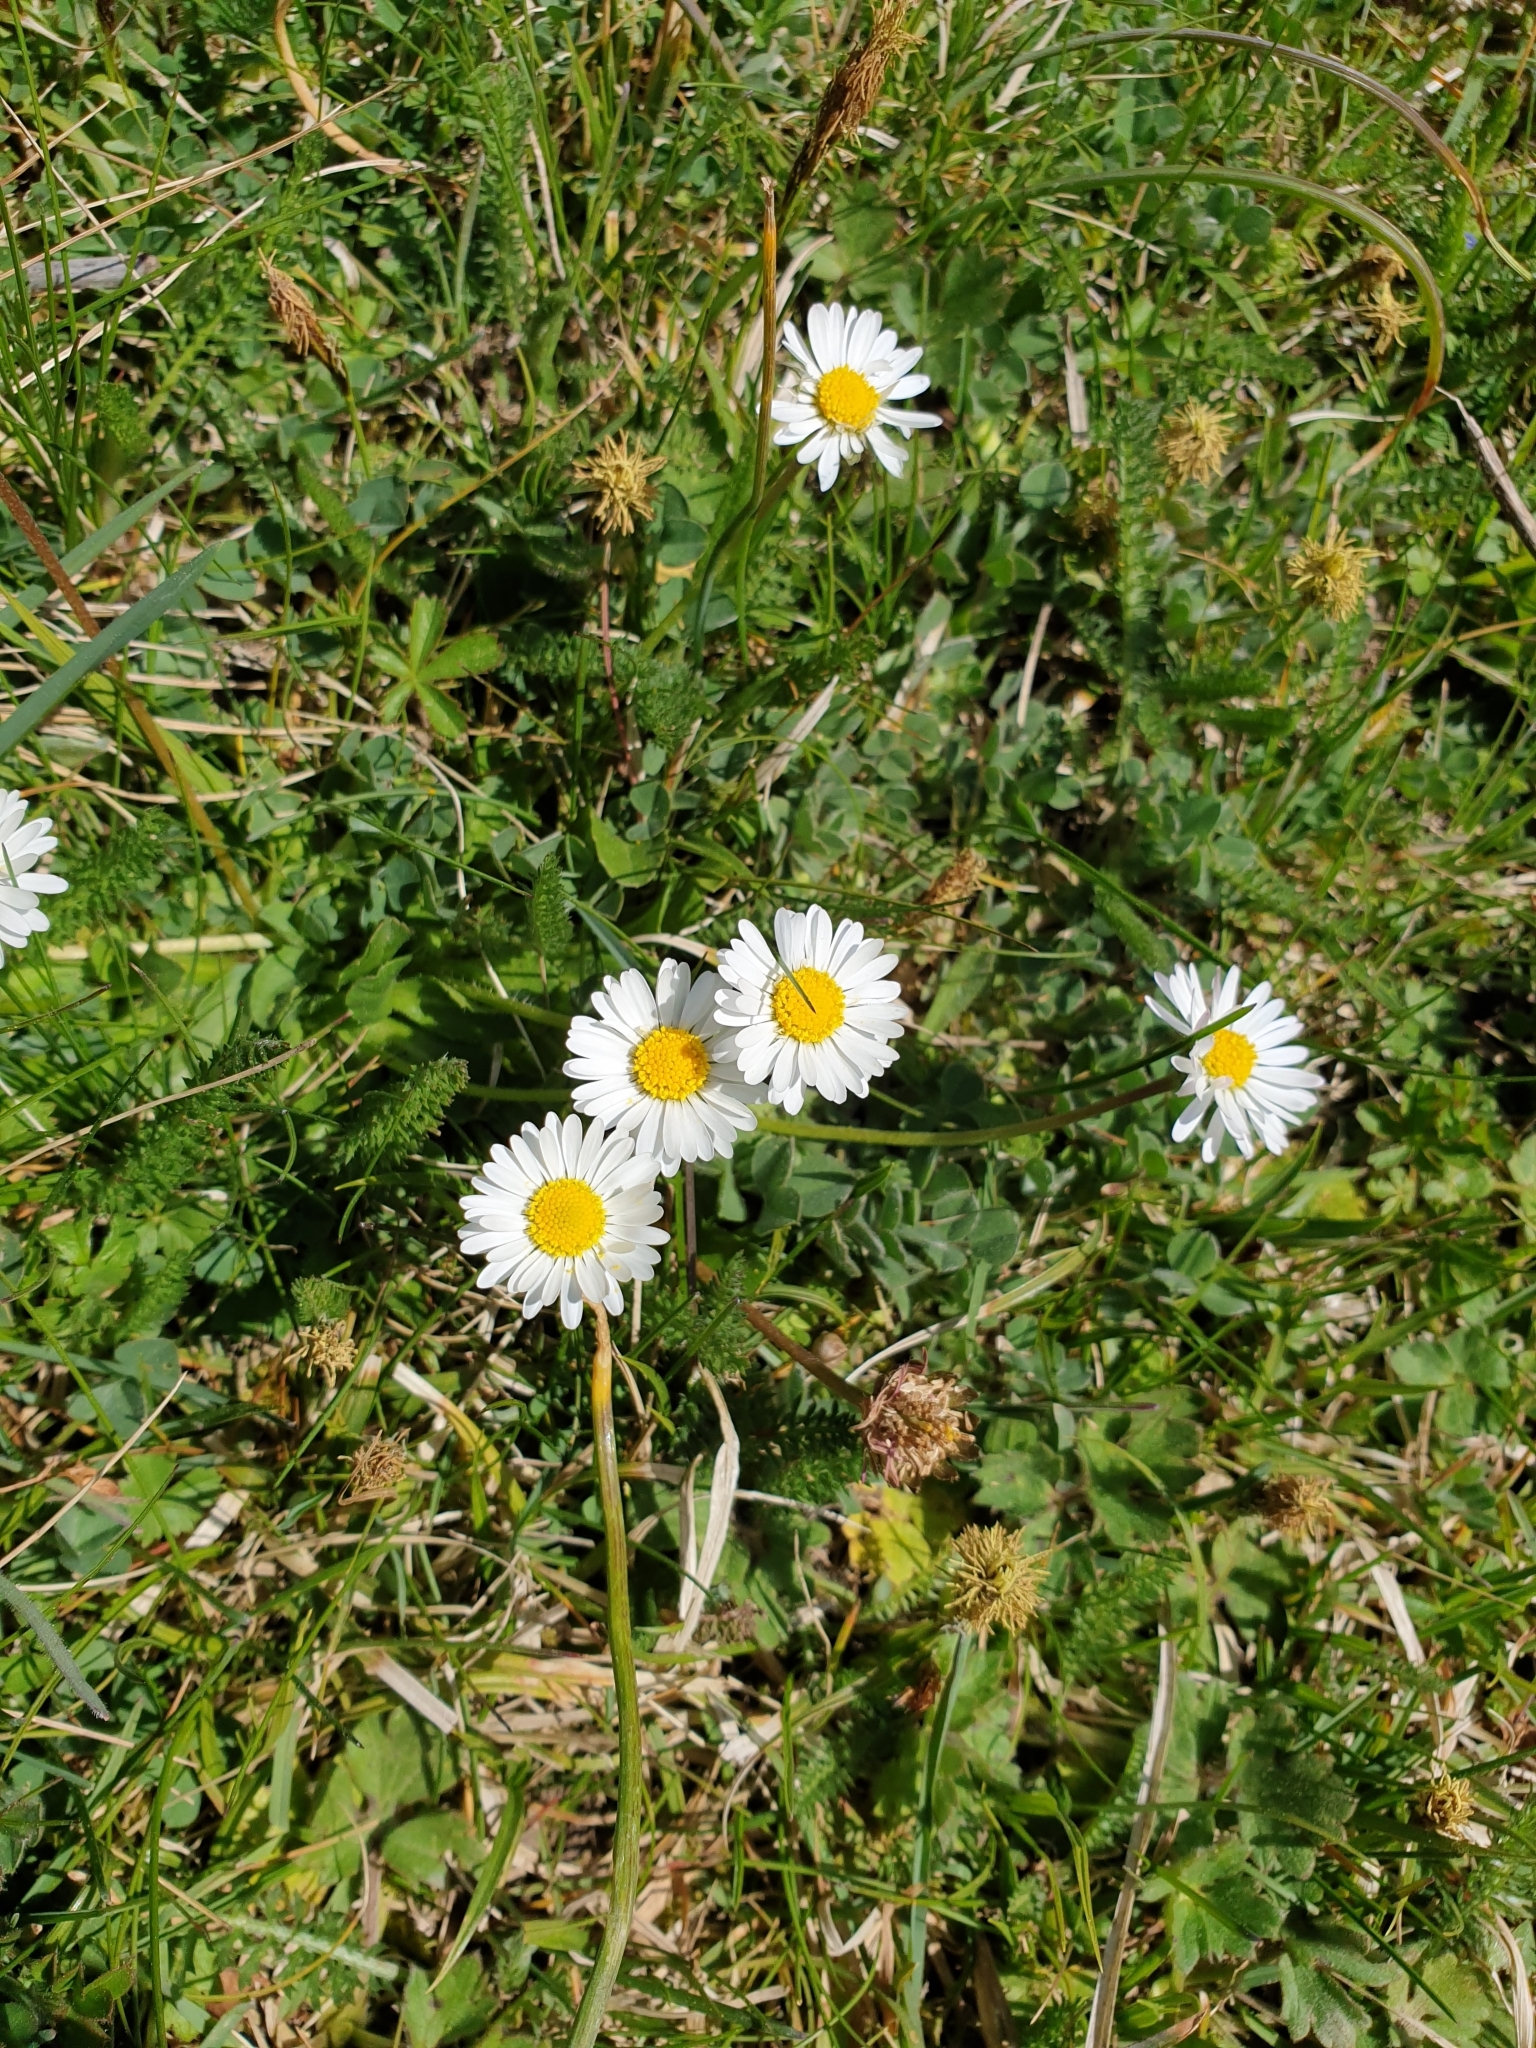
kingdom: Plantae
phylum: Tracheophyta
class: Magnoliopsida
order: Asterales
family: Asteraceae
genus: Bellis
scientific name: Bellis perennis
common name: Lawndaisy
